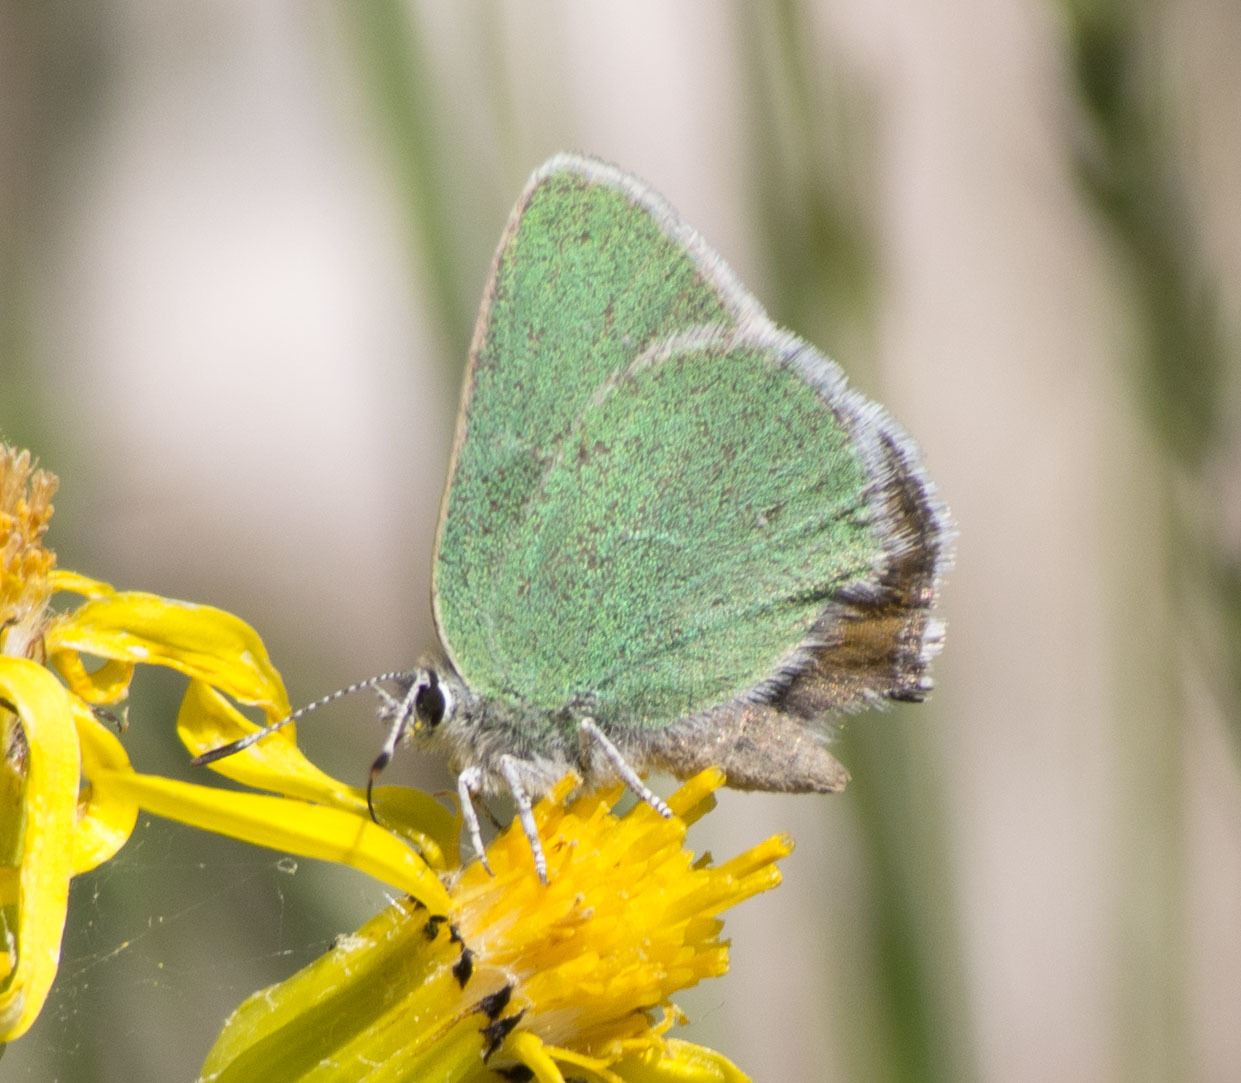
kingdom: Animalia
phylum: Arthropoda
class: Insecta
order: Lepidoptera
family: Lycaenidae
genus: Callophrys
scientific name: Callophrys affinis
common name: Western green hairstreak
